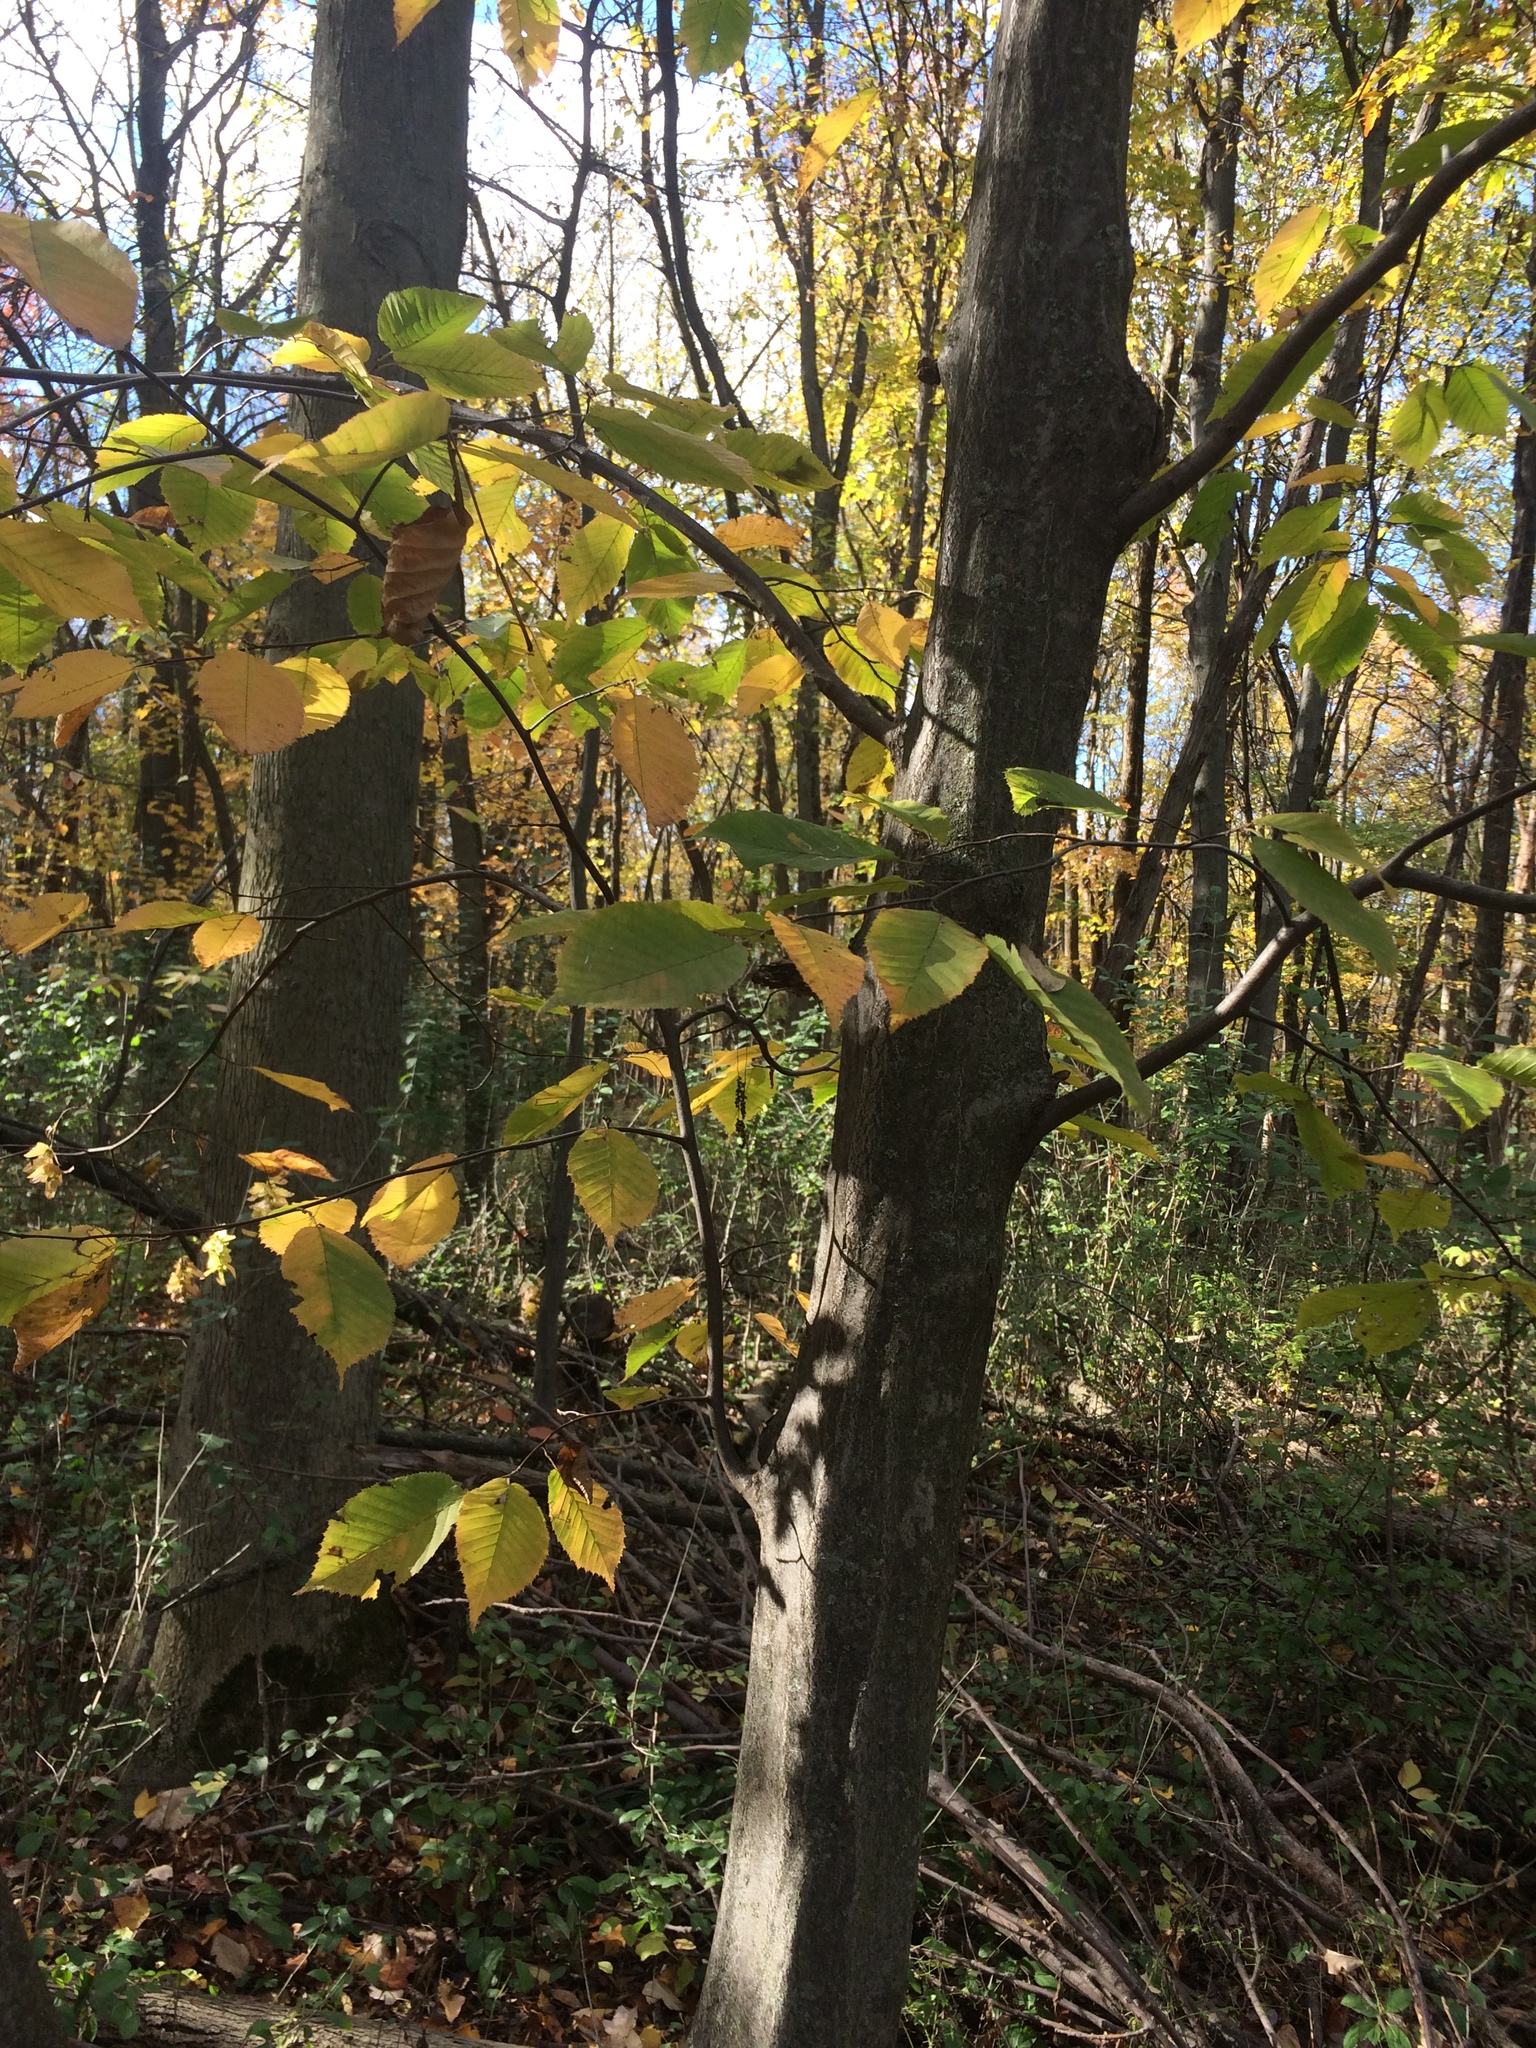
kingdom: Plantae
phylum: Tracheophyta
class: Magnoliopsida
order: Fagales
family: Betulaceae
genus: Carpinus
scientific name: Carpinus caroliniana
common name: American hornbeam
